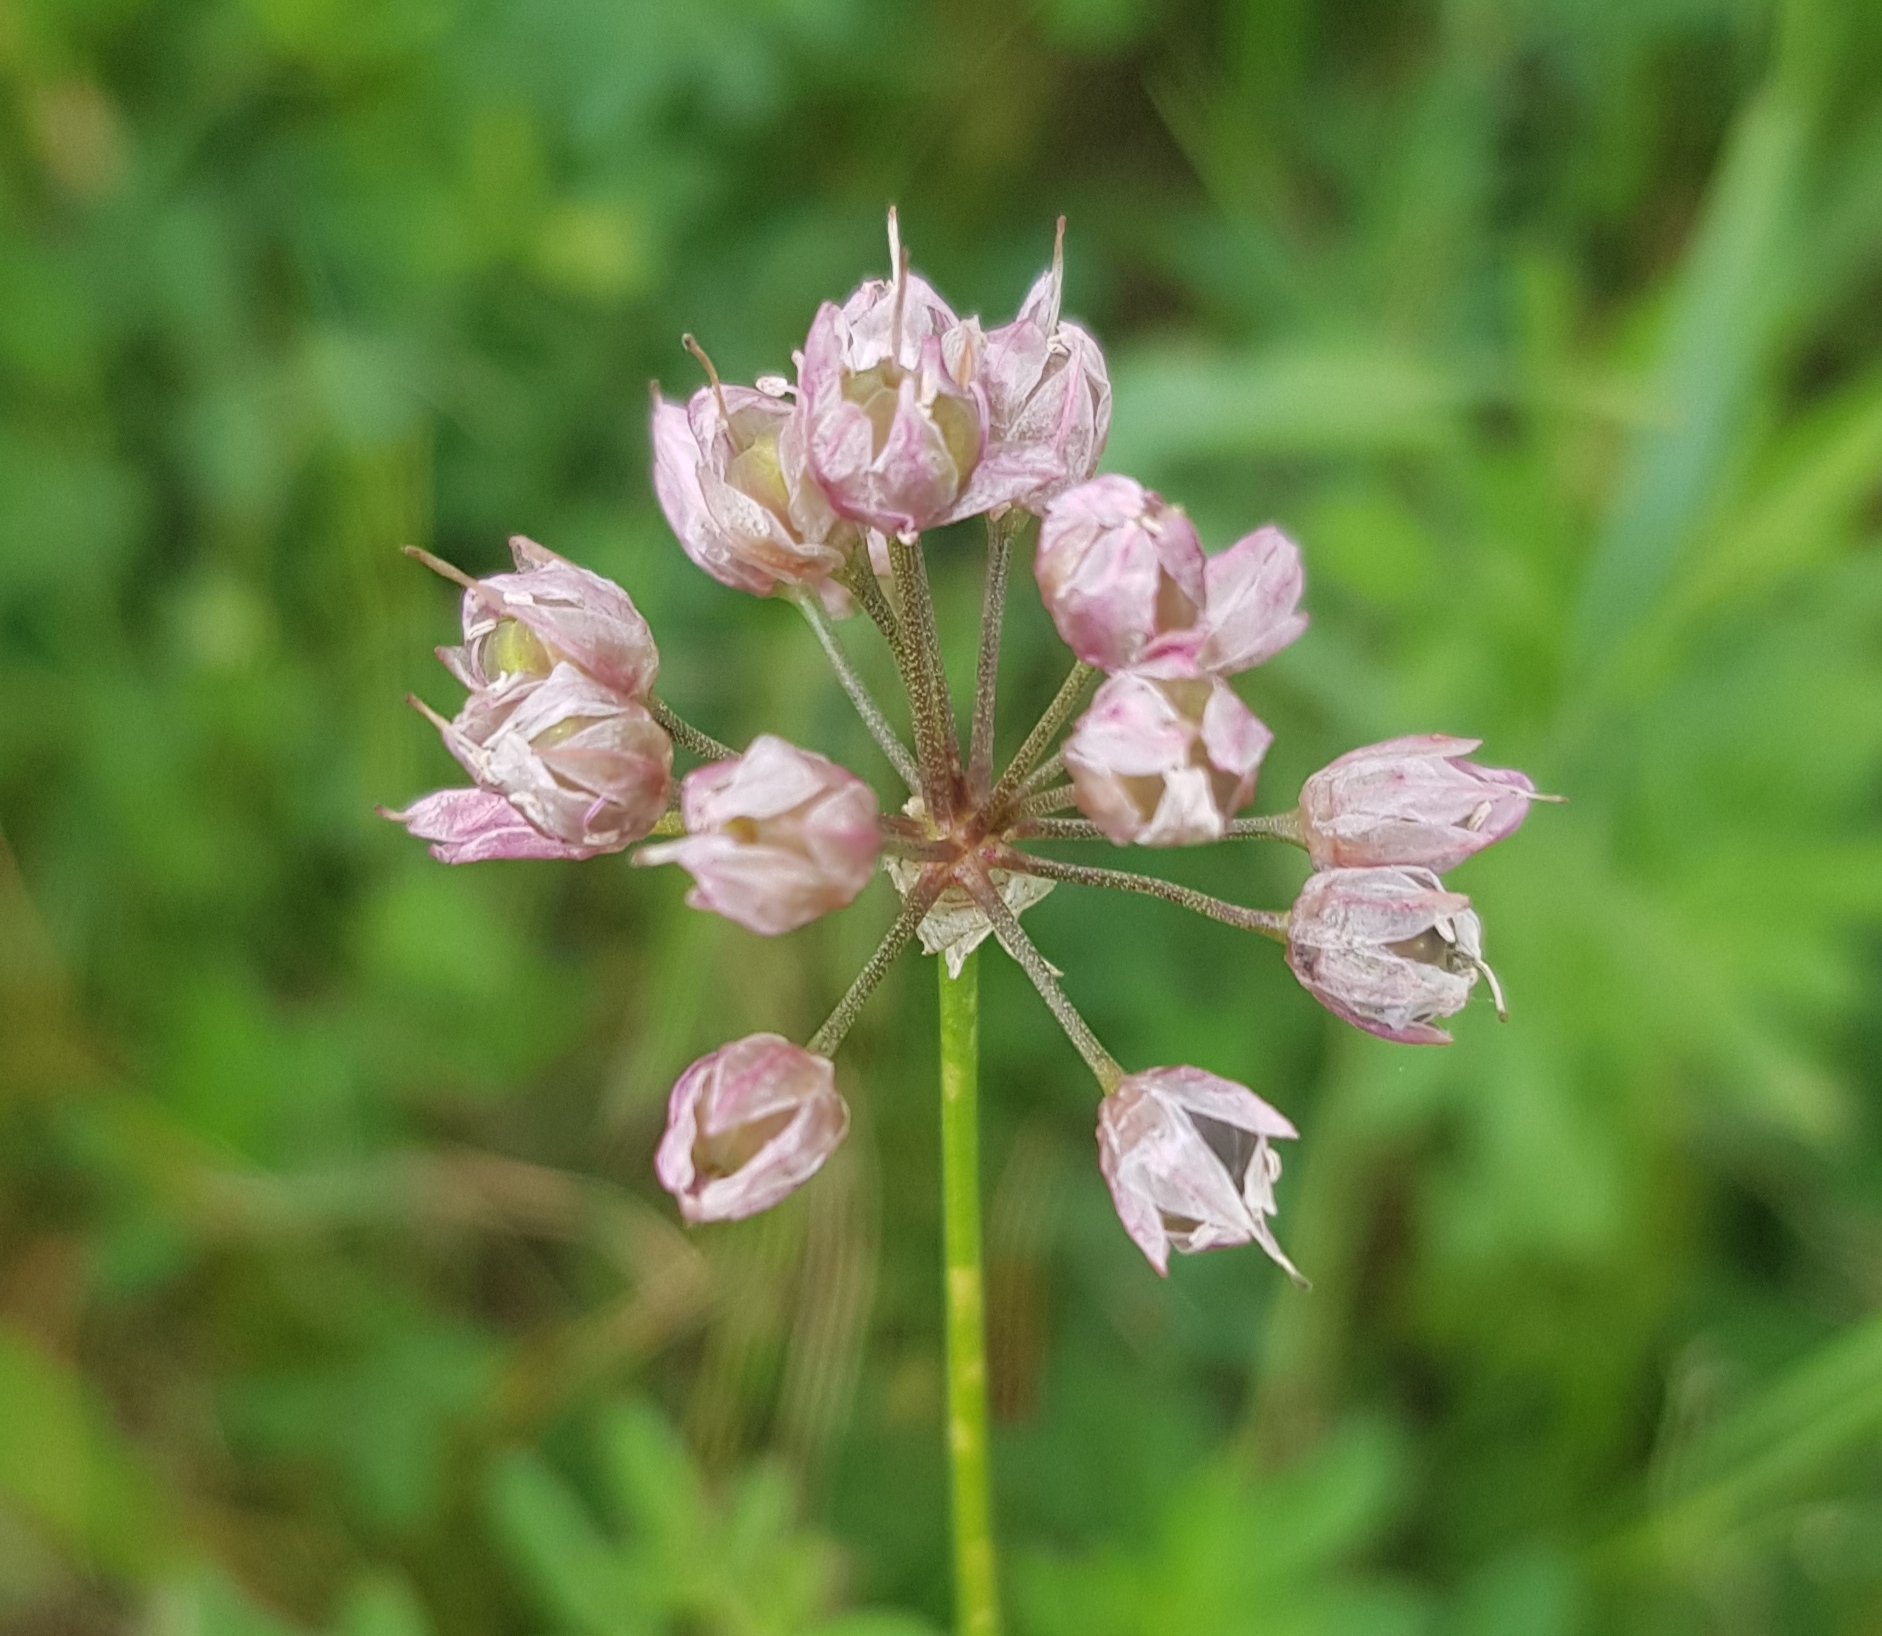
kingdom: Plantae
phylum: Tracheophyta
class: Liliopsida
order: Asparagales
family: Amaryllidaceae
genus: Allium
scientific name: Allium splendens
